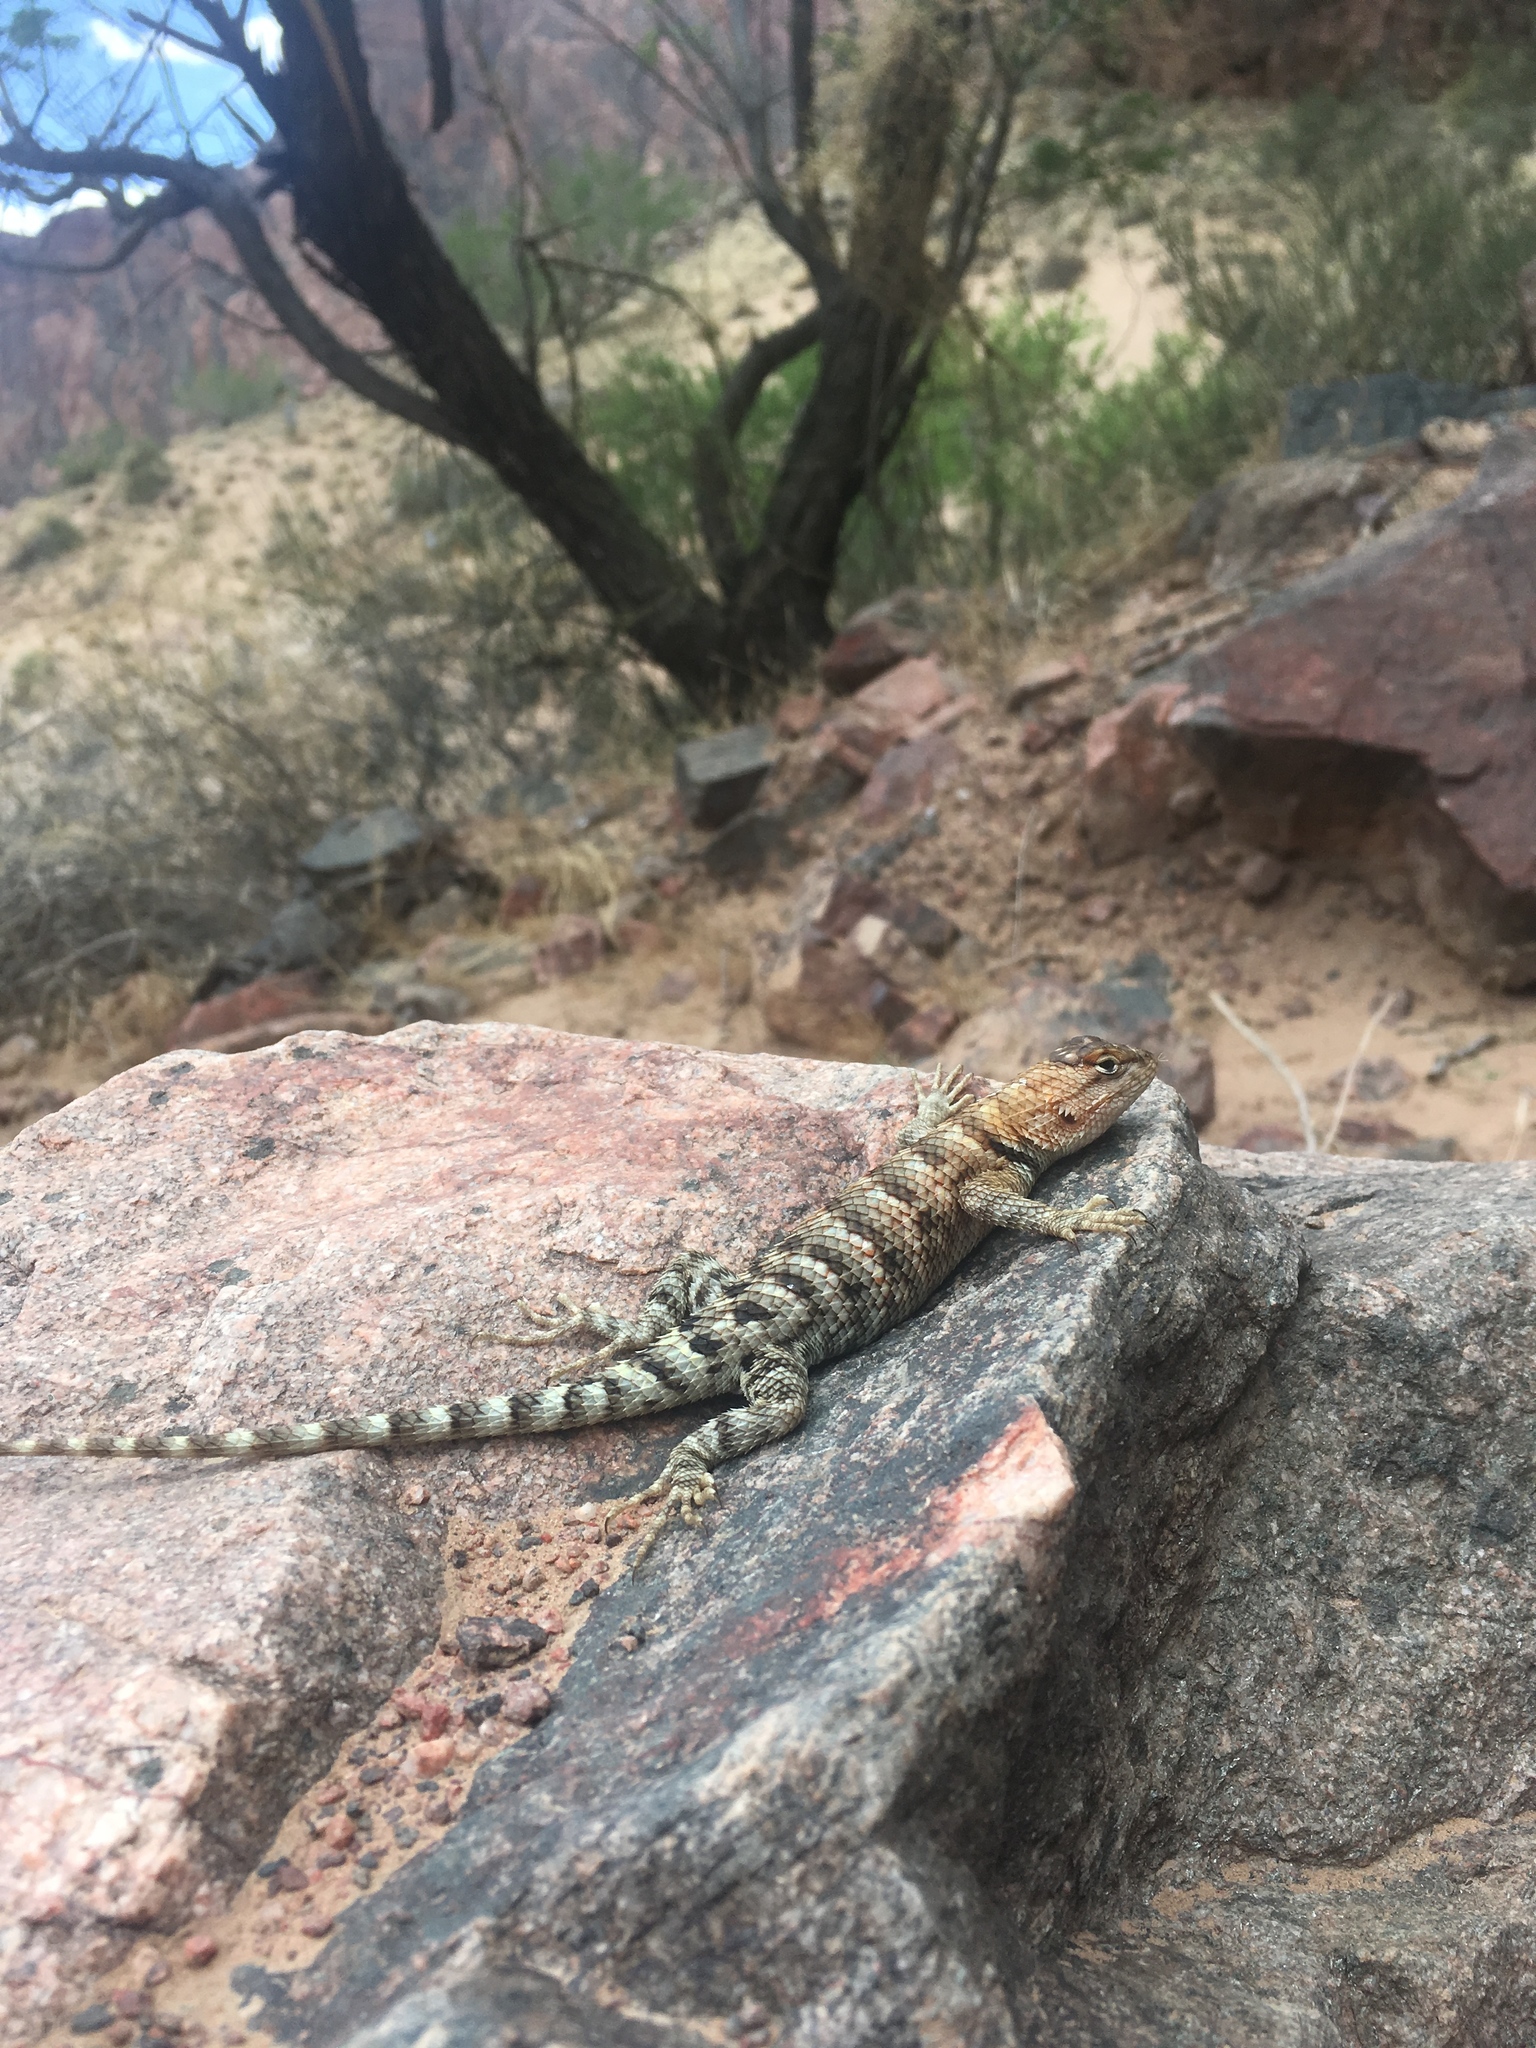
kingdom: Animalia
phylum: Chordata
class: Squamata
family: Phrynosomatidae
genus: Sceloporus
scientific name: Sceloporus magister
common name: Desert spiny lizard
